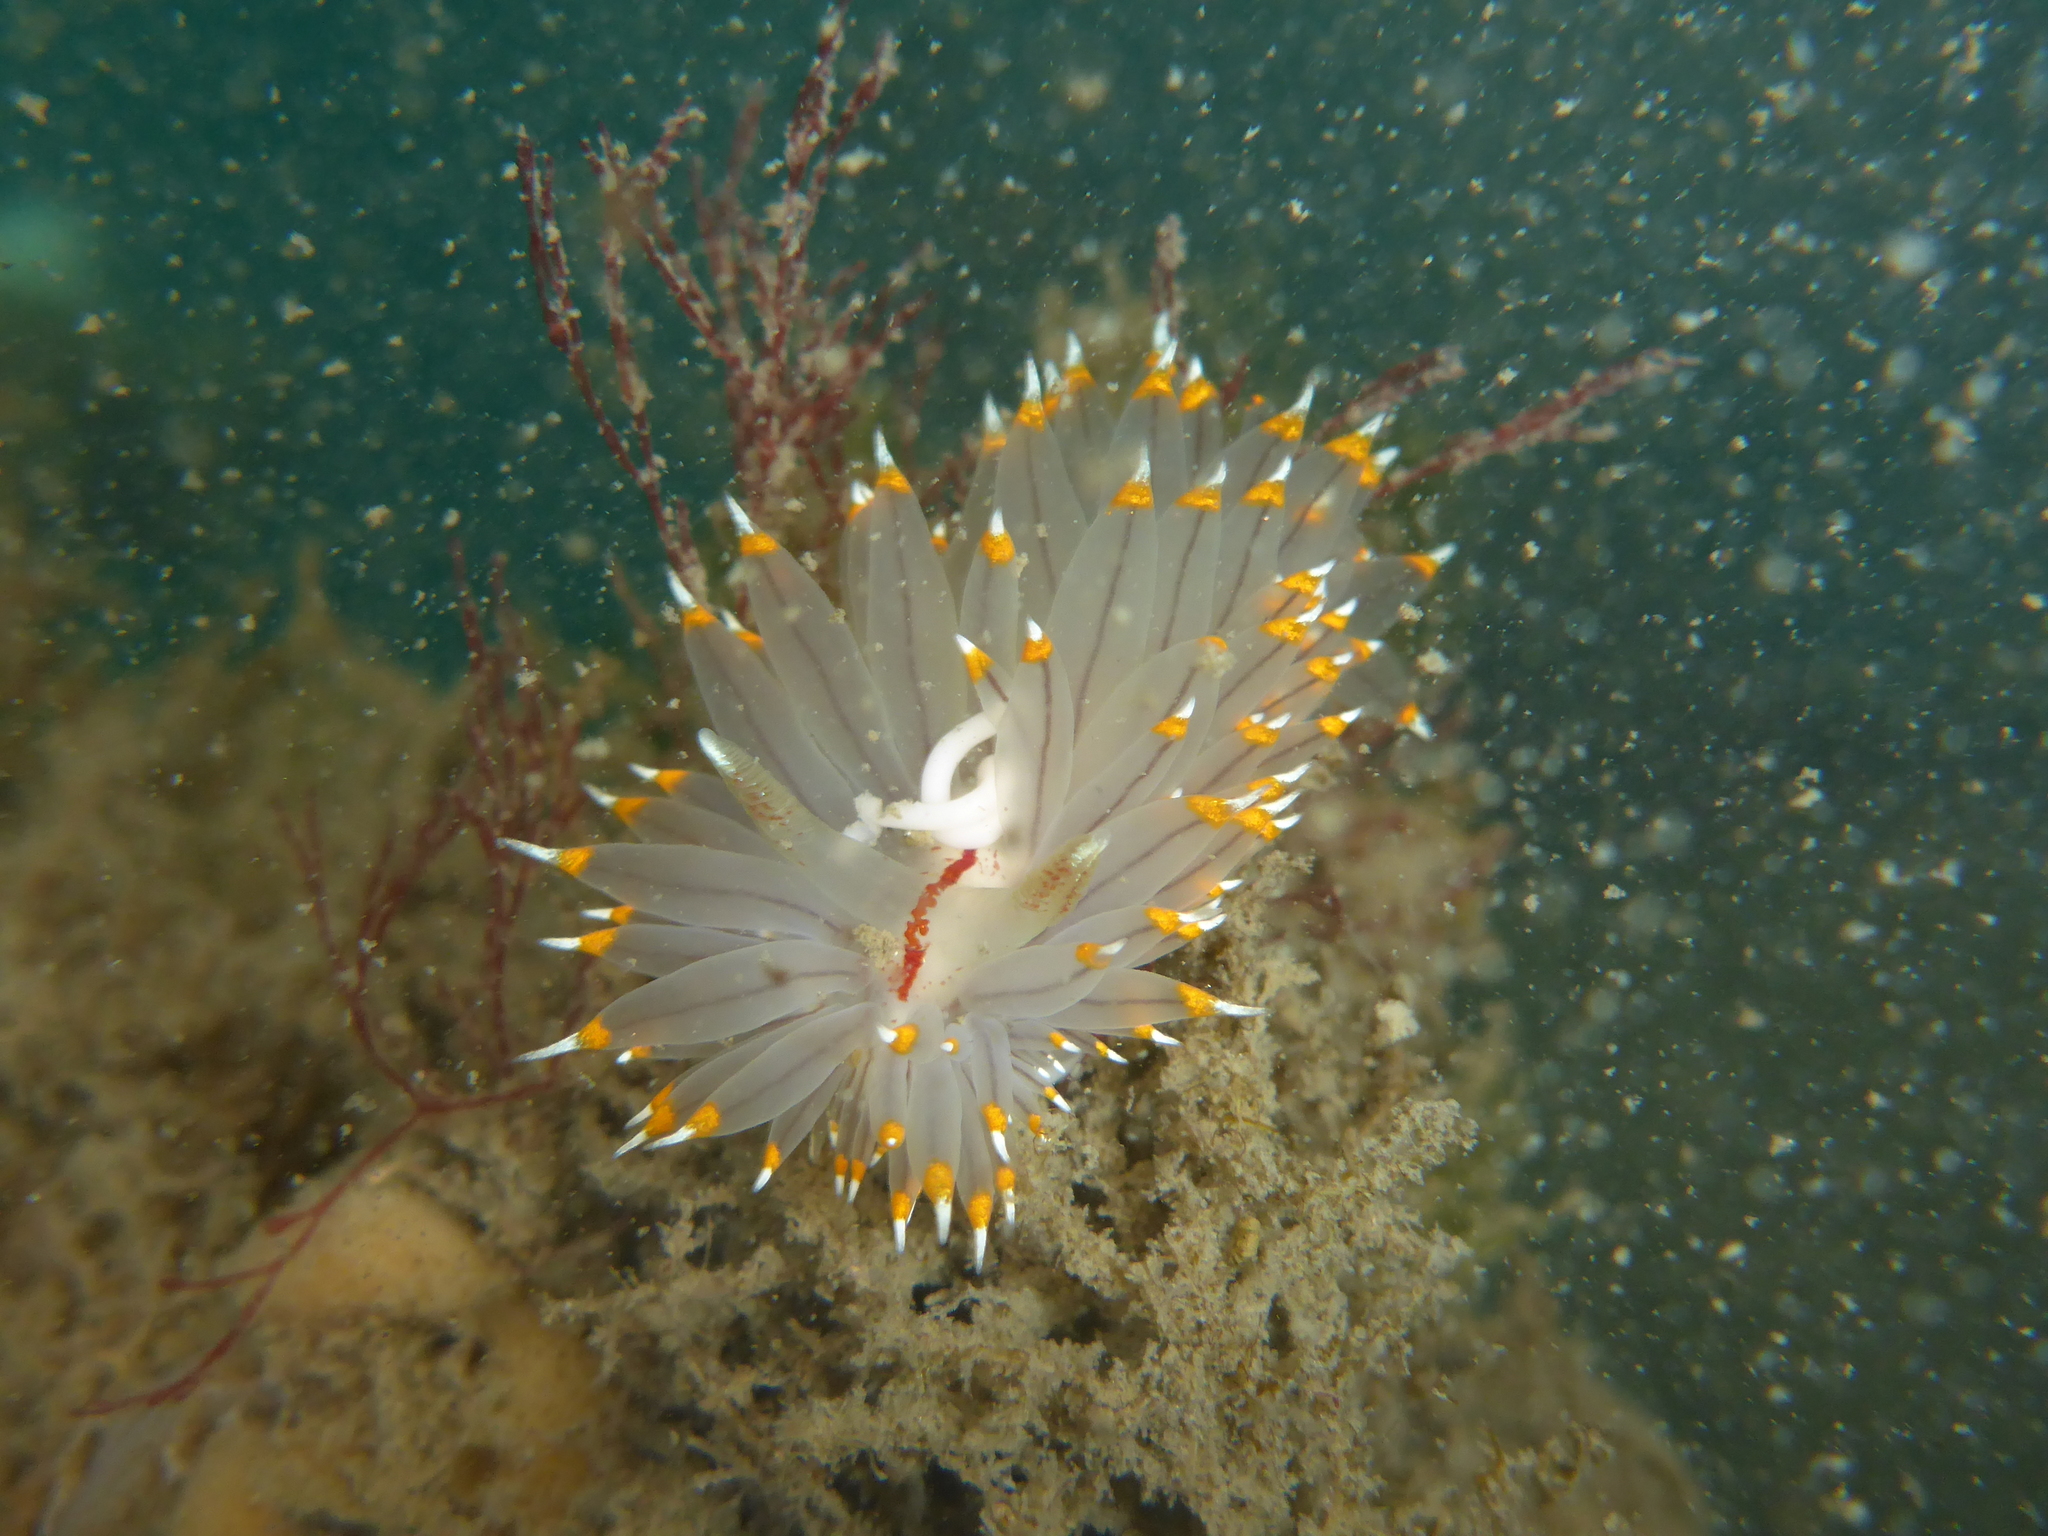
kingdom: Animalia
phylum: Mollusca
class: Gastropoda
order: Nudibranchia
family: Janolidae
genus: Antiopella
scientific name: Antiopella fusca
